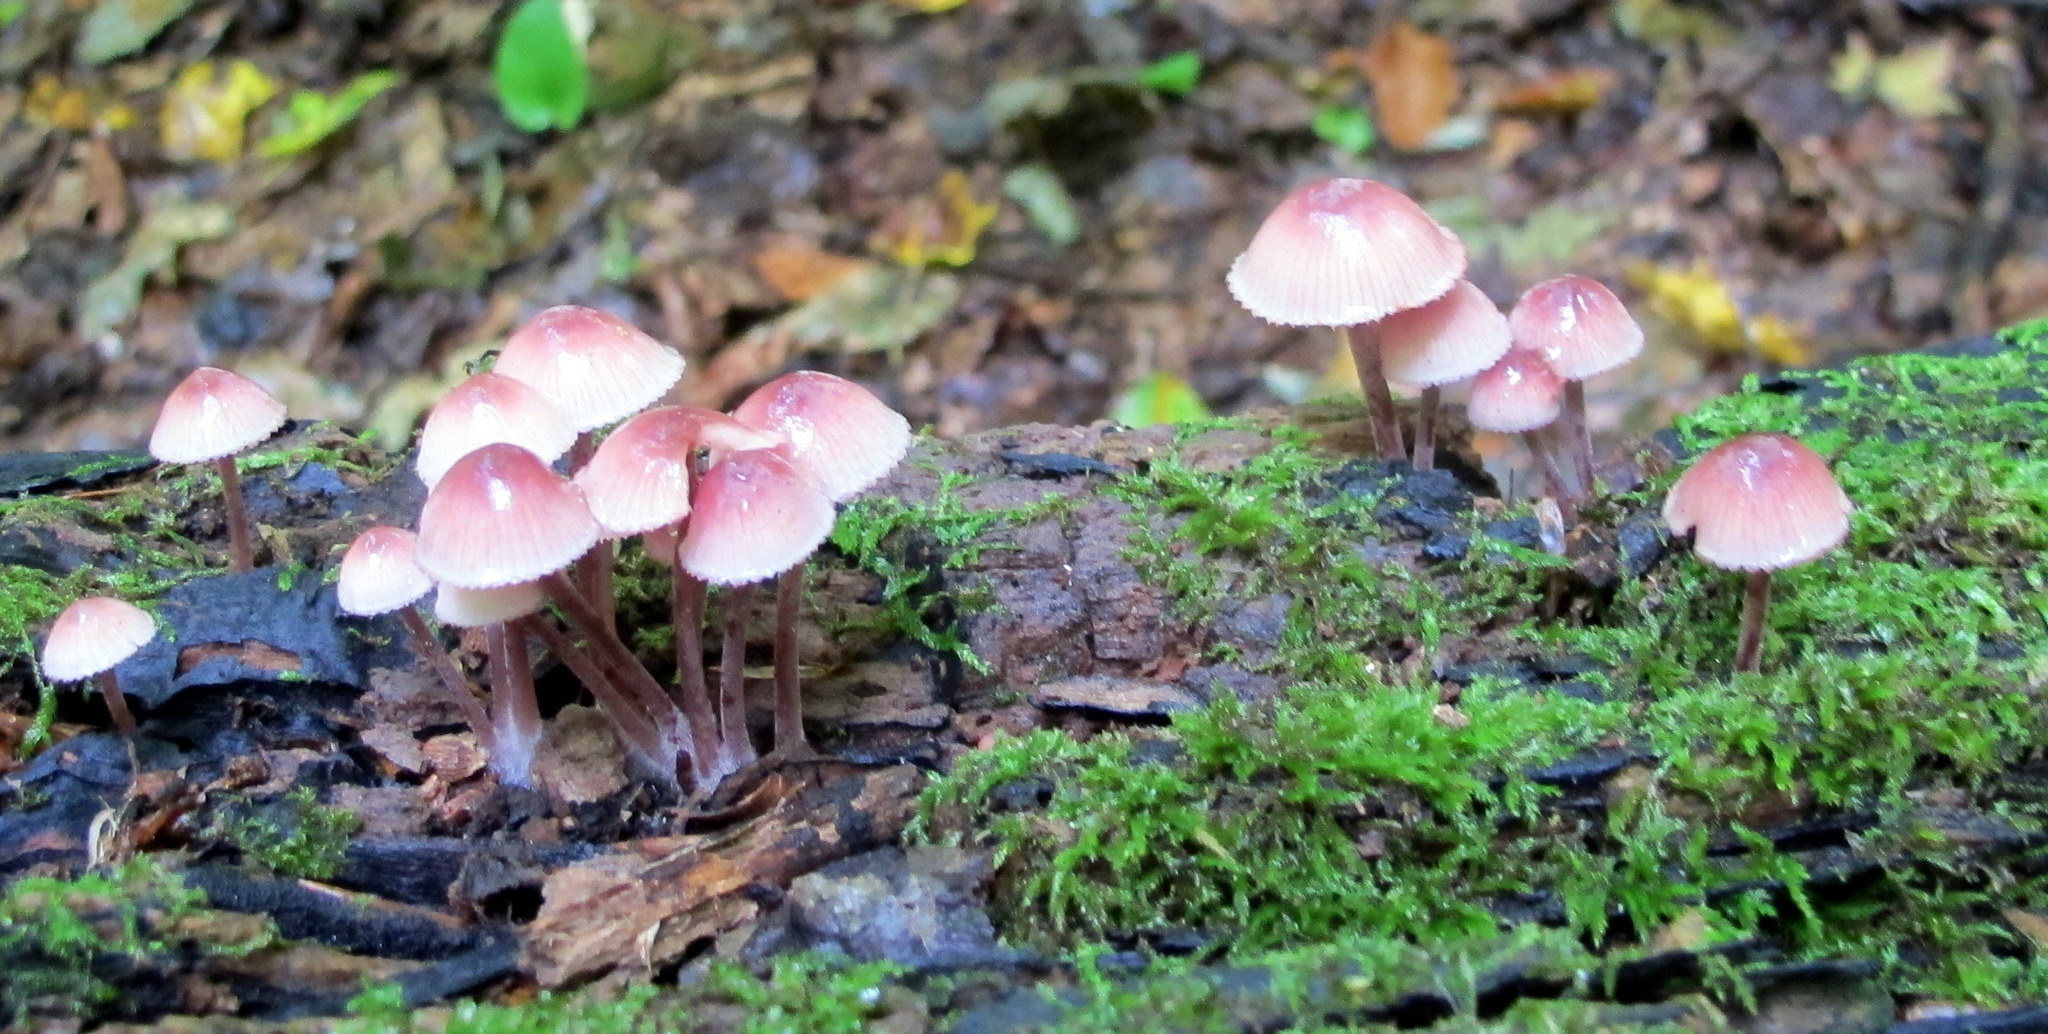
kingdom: Fungi
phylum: Basidiomycota
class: Agaricomycetes
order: Agaricales
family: Mycenaceae
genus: Mycena
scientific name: Mycena haematopus
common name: Burgundydrop bonnet
